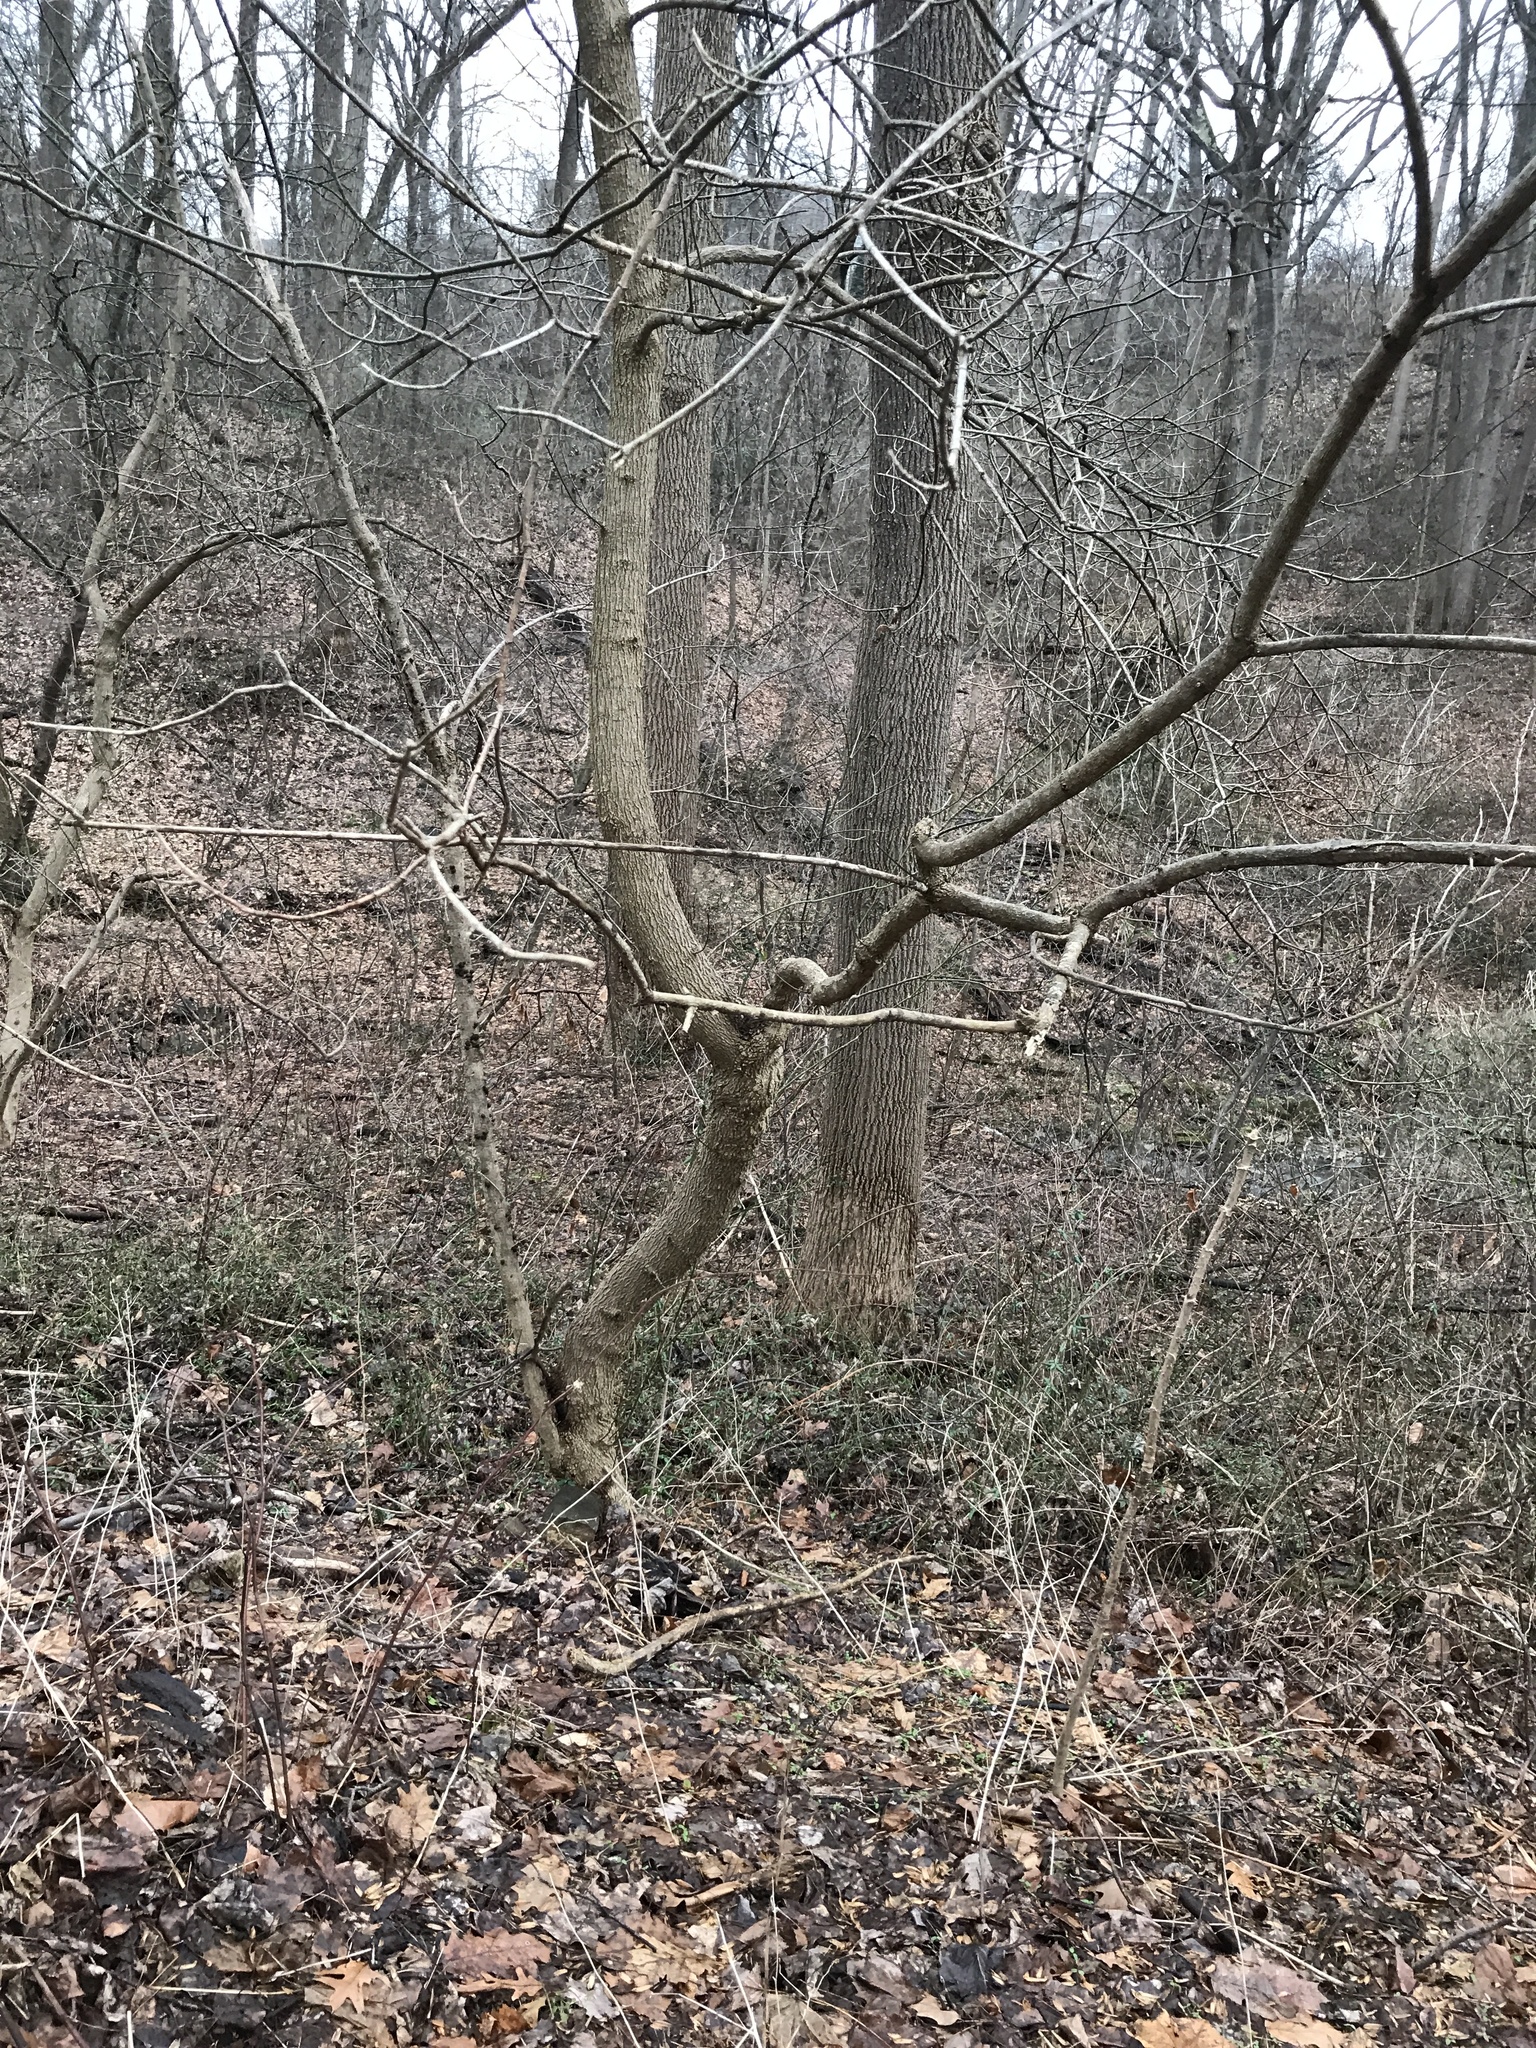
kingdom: Plantae
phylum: Tracheophyta
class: Magnoliopsida
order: Sapindales
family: Sapindaceae
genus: Acer
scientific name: Acer negundo
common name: Ashleaf maple
